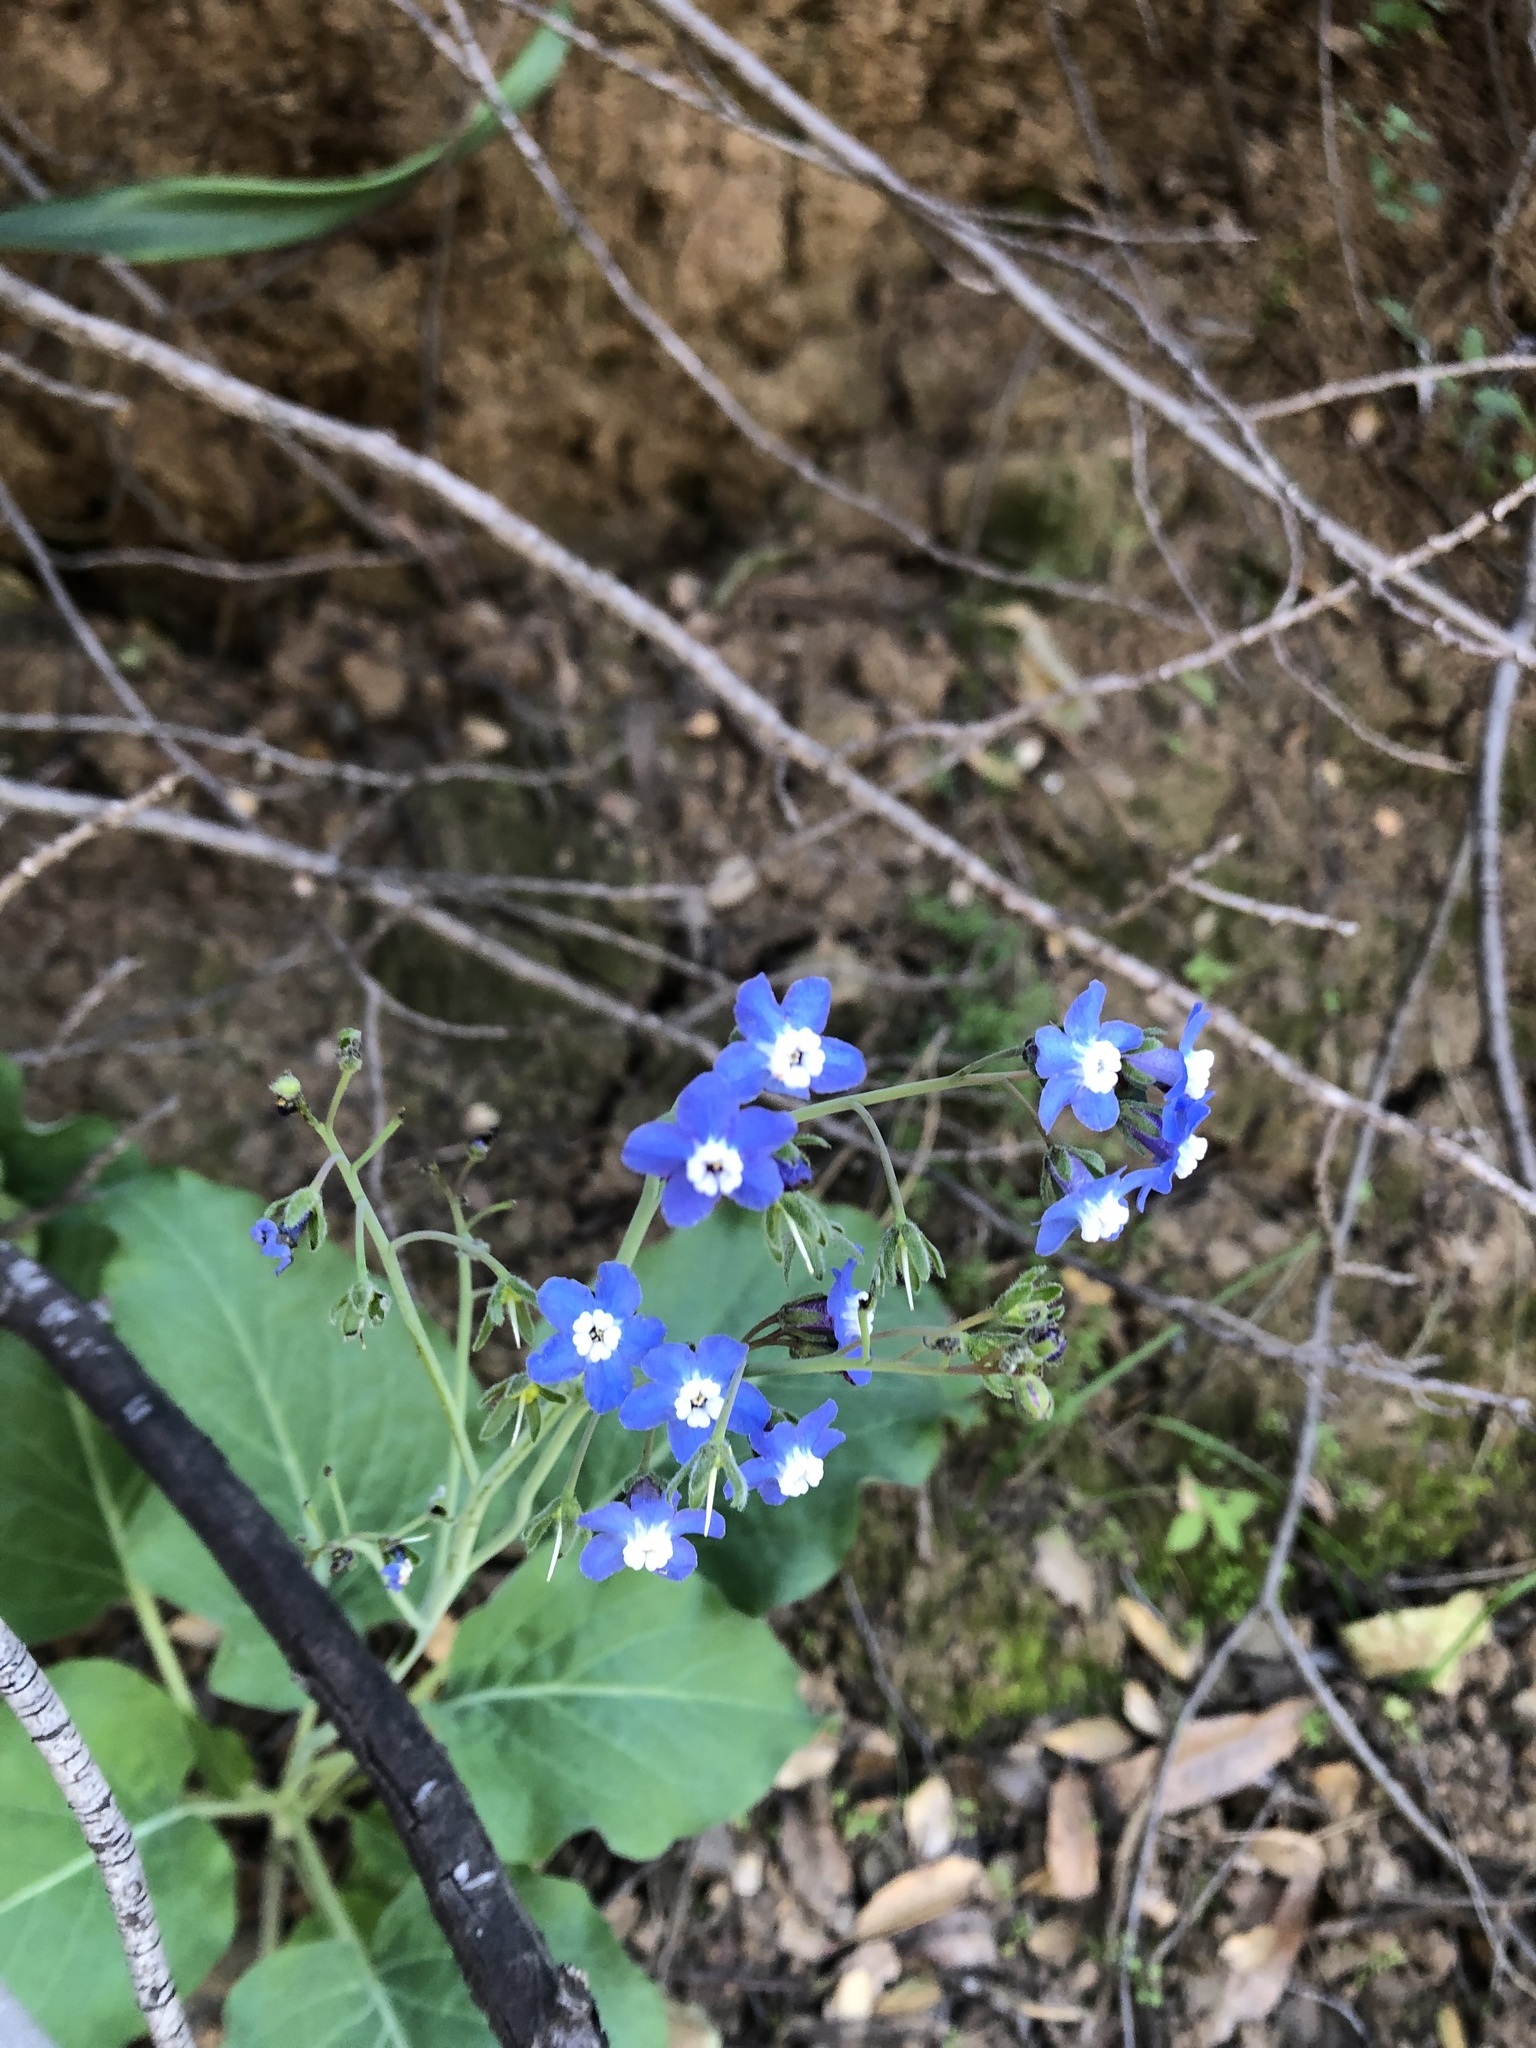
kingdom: Plantae
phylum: Tracheophyta
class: Magnoliopsida
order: Boraginales
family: Boraginaceae
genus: Adelinia
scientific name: Adelinia grande
